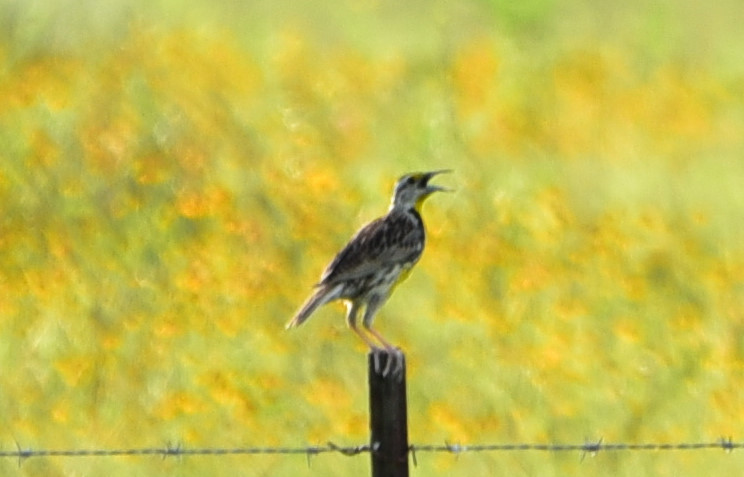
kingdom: Animalia
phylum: Chordata
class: Aves
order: Passeriformes
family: Icteridae
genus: Sturnella
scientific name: Sturnella magna
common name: Eastern meadowlark
